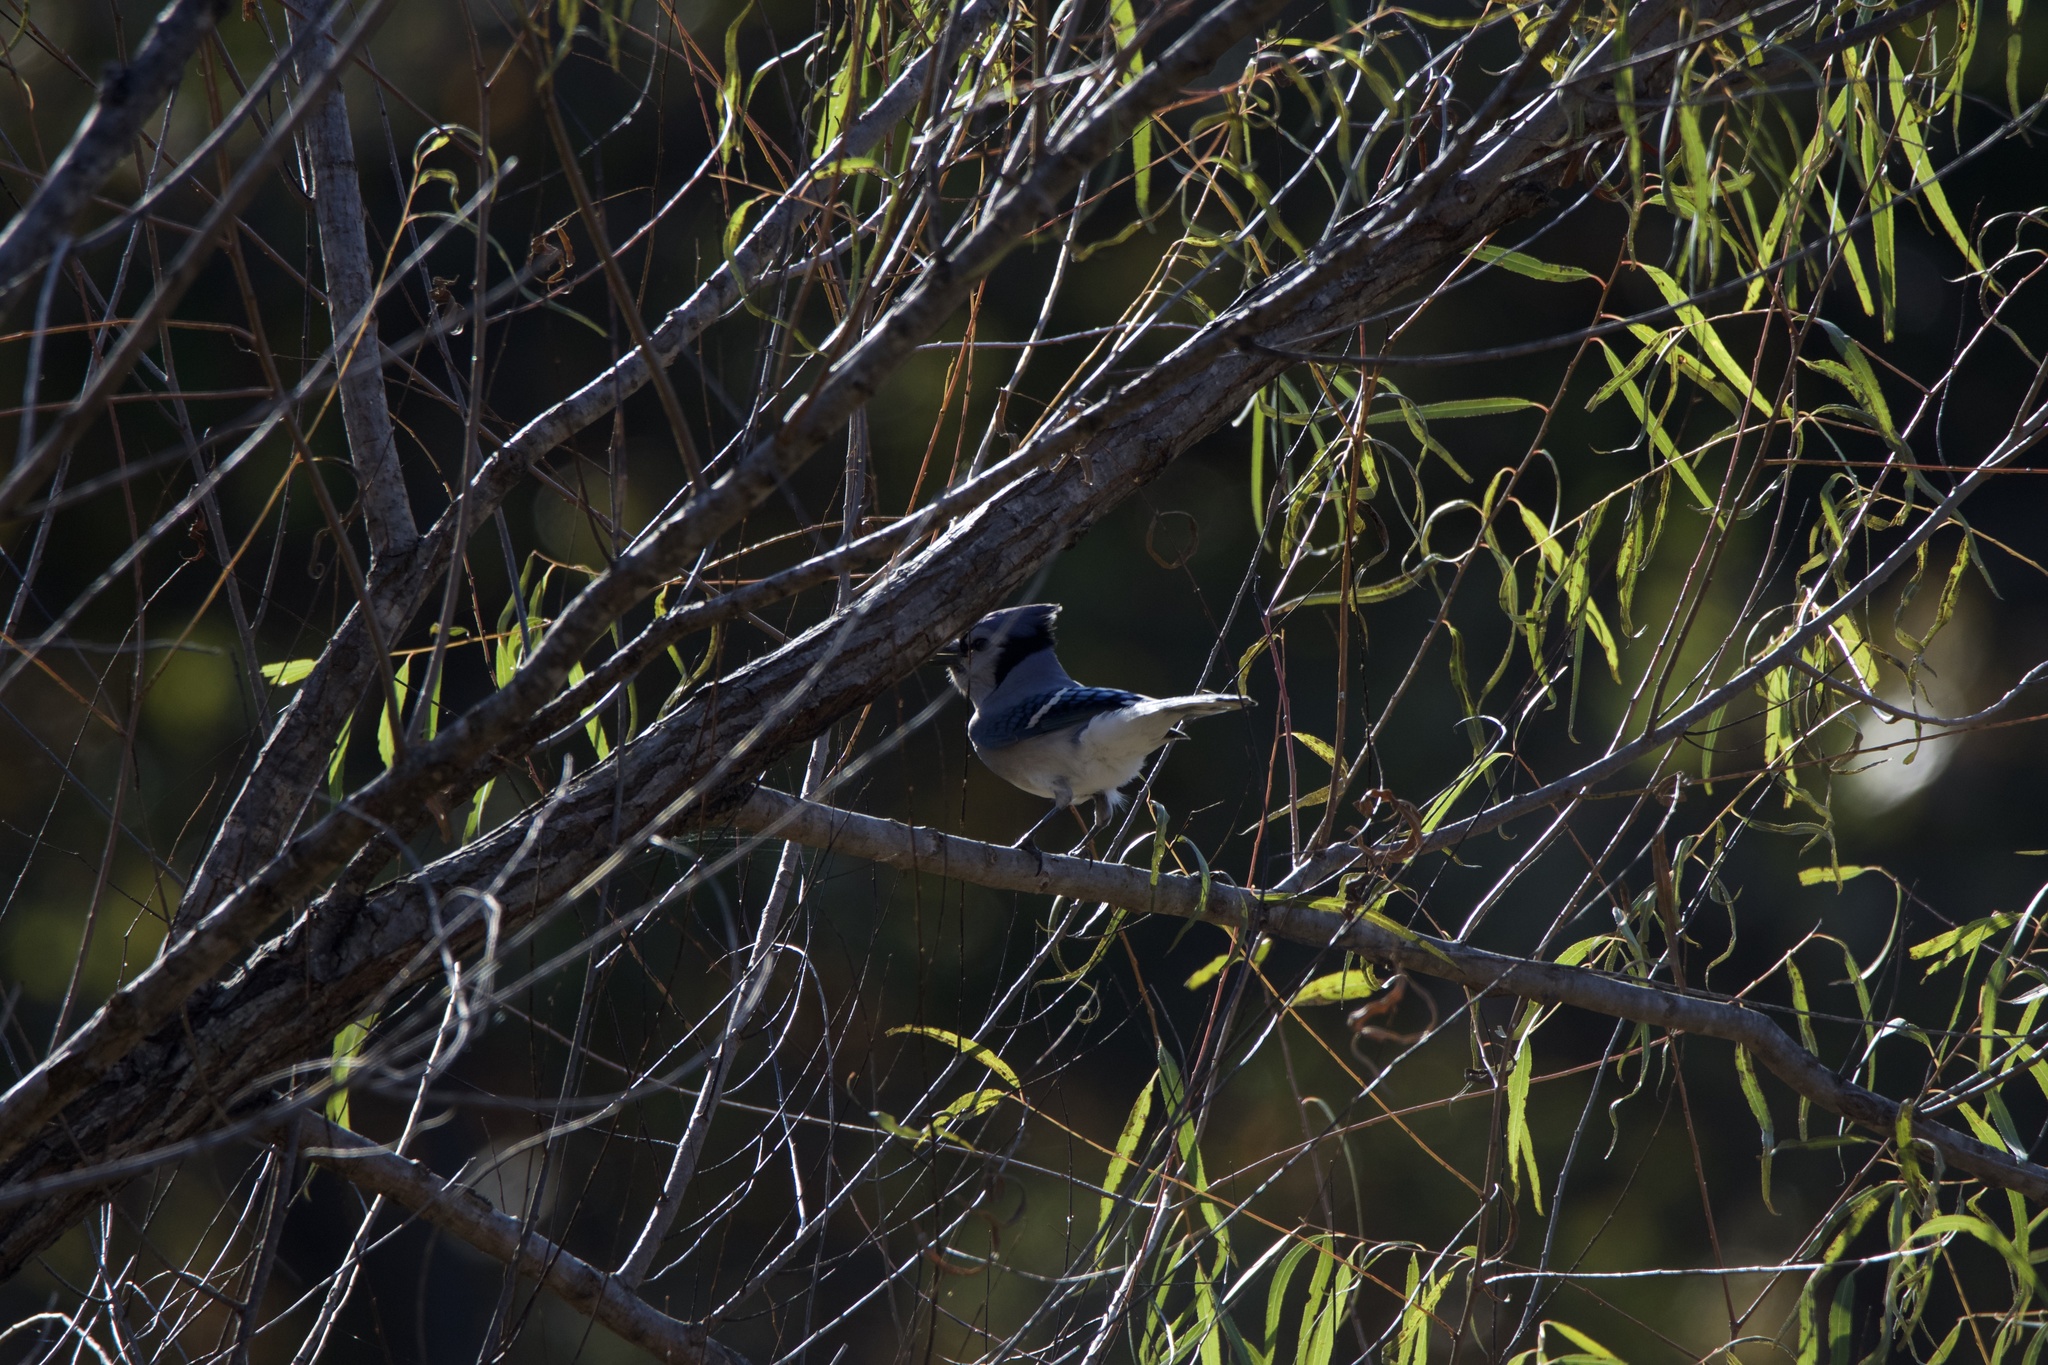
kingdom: Animalia
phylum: Chordata
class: Aves
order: Passeriformes
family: Corvidae
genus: Cyanocitta
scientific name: Cyanocitta cristata
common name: Blue jay
